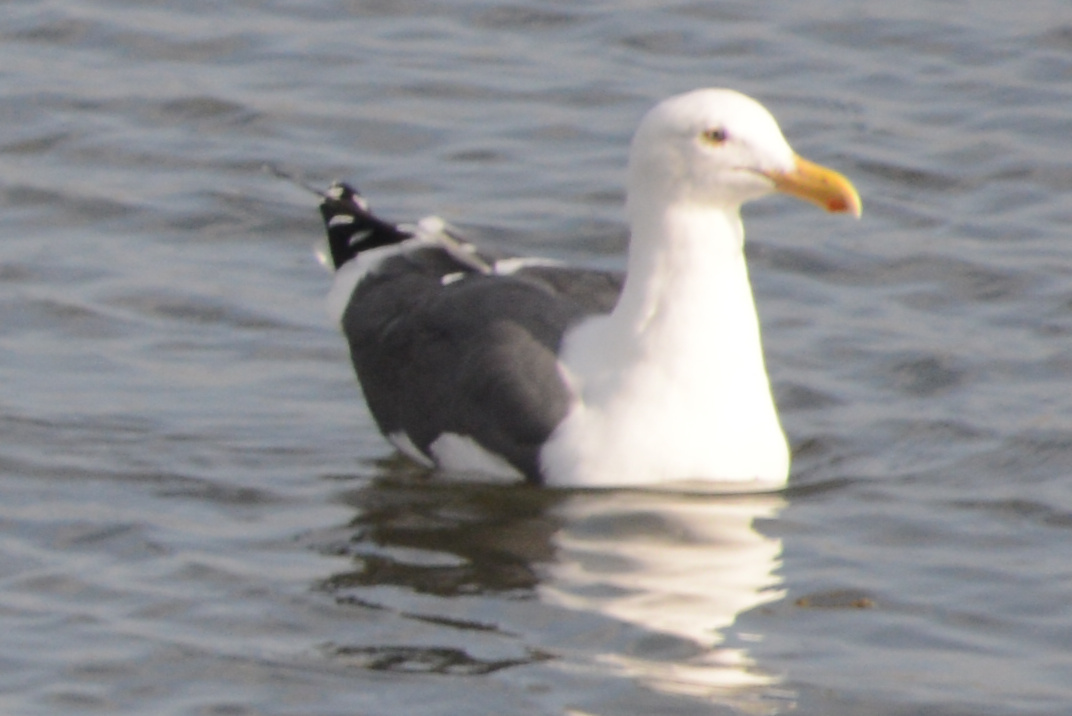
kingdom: Animalia
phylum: Chordata
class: Aves
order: Charadriiformes
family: Laridae
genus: Larus
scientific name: Larus occidentalis
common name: Western gull
